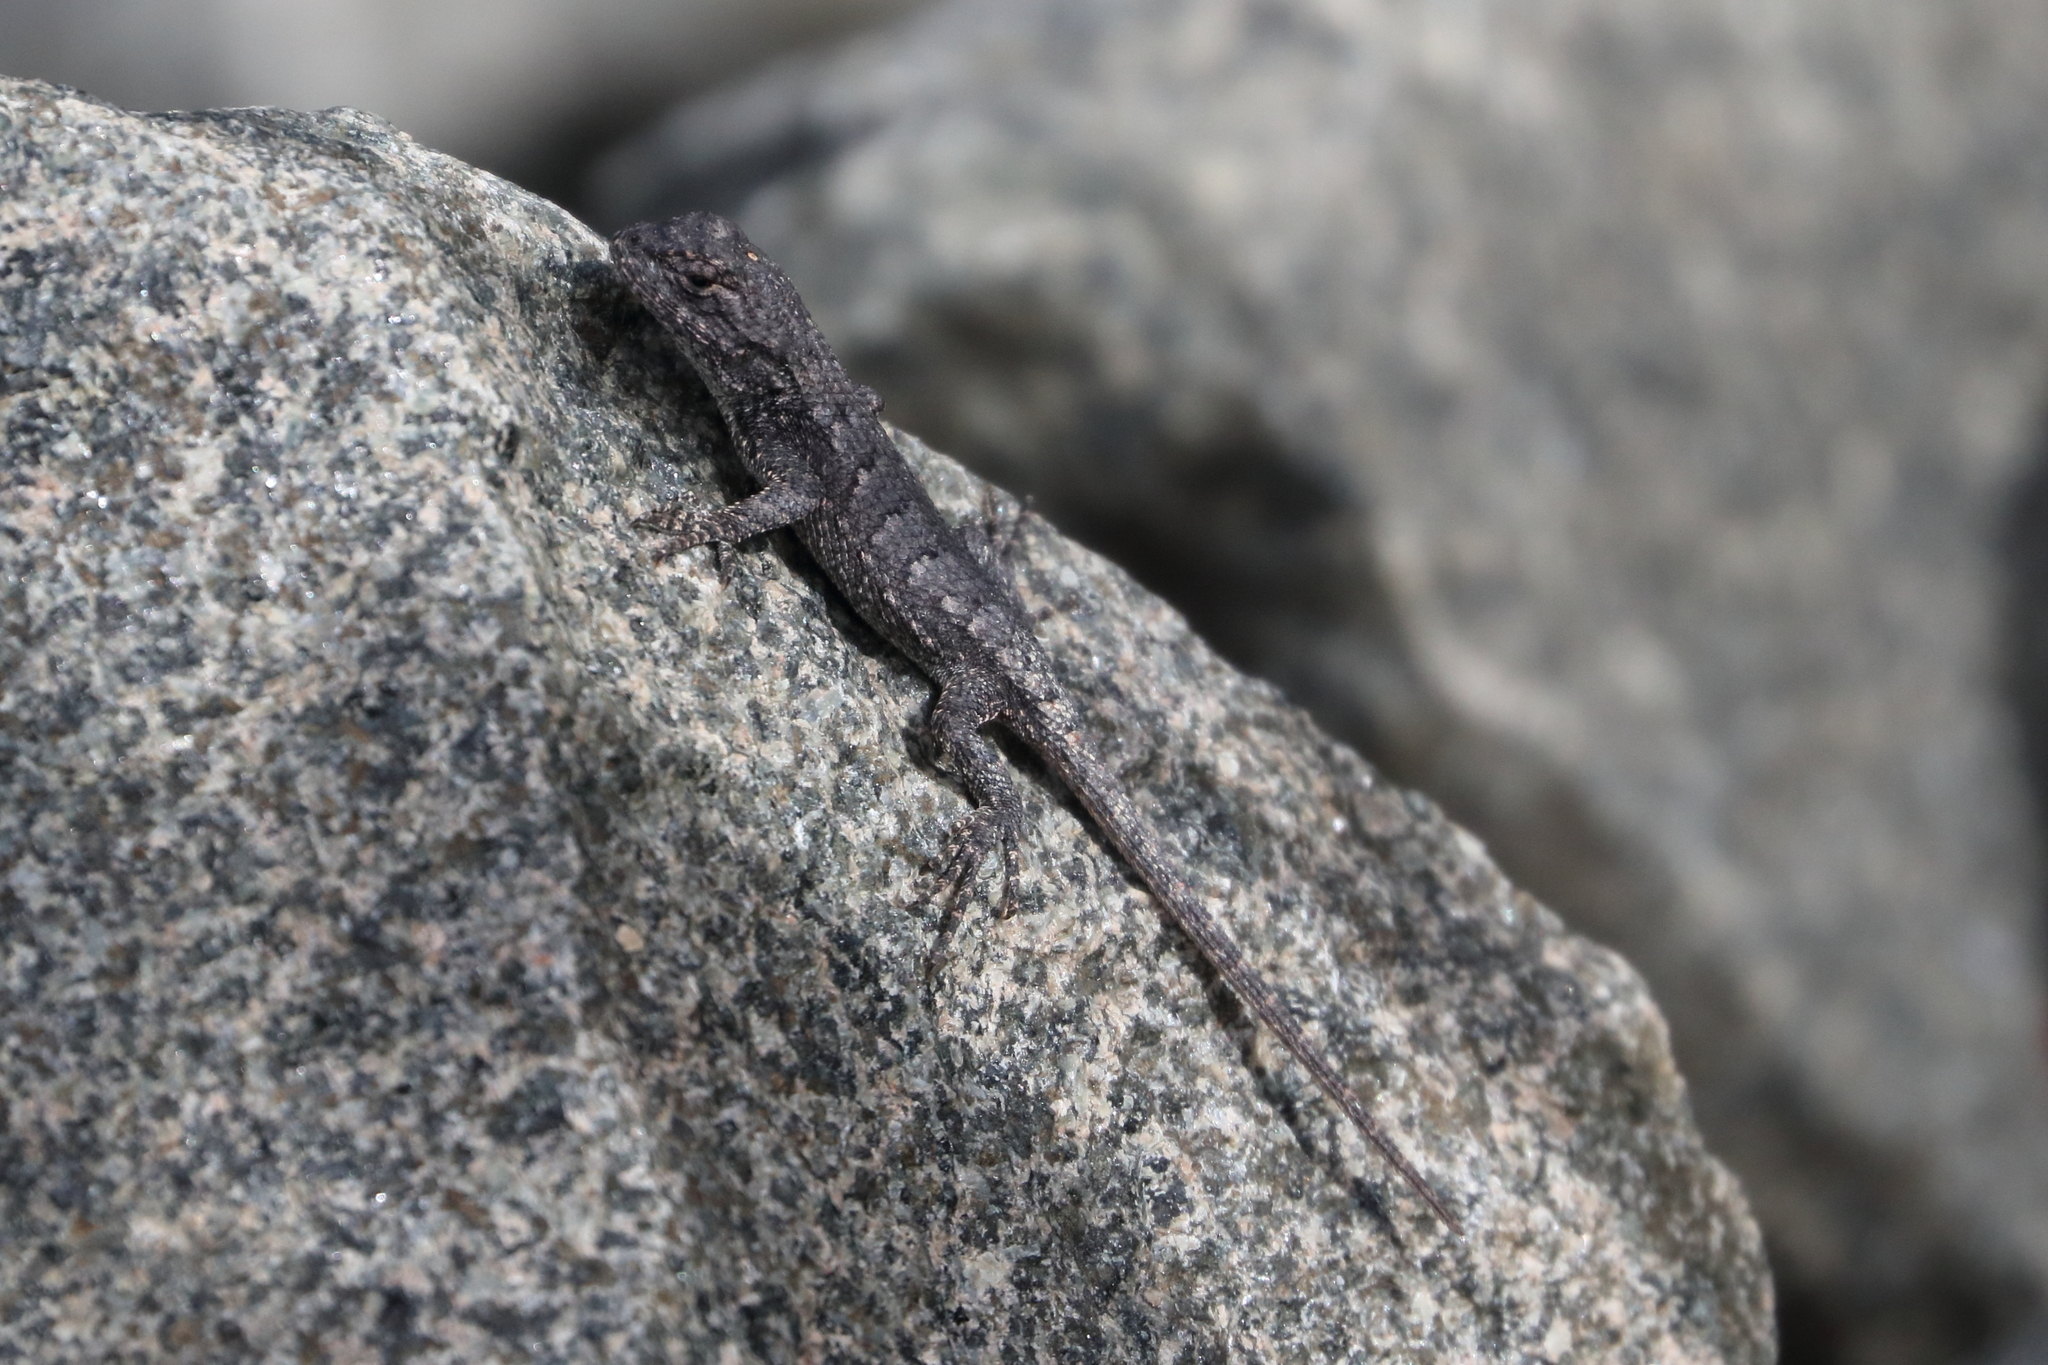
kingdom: Animalia
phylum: Chordata
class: Squamata
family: Phrynosomatidae
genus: Sceloporus
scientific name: Sceloporus undulatus
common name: Eastern fence lizard
